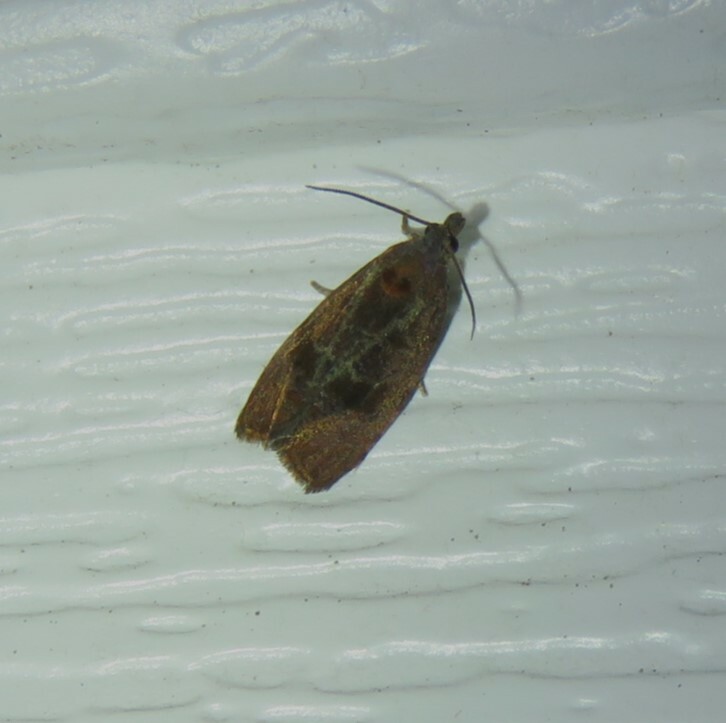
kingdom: Animalia
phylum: Arthropoda
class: Insecta
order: Lepidoptera
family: Tortricidae
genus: Evora
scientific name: Evora hemidesma
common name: Spirea leaftier moth
